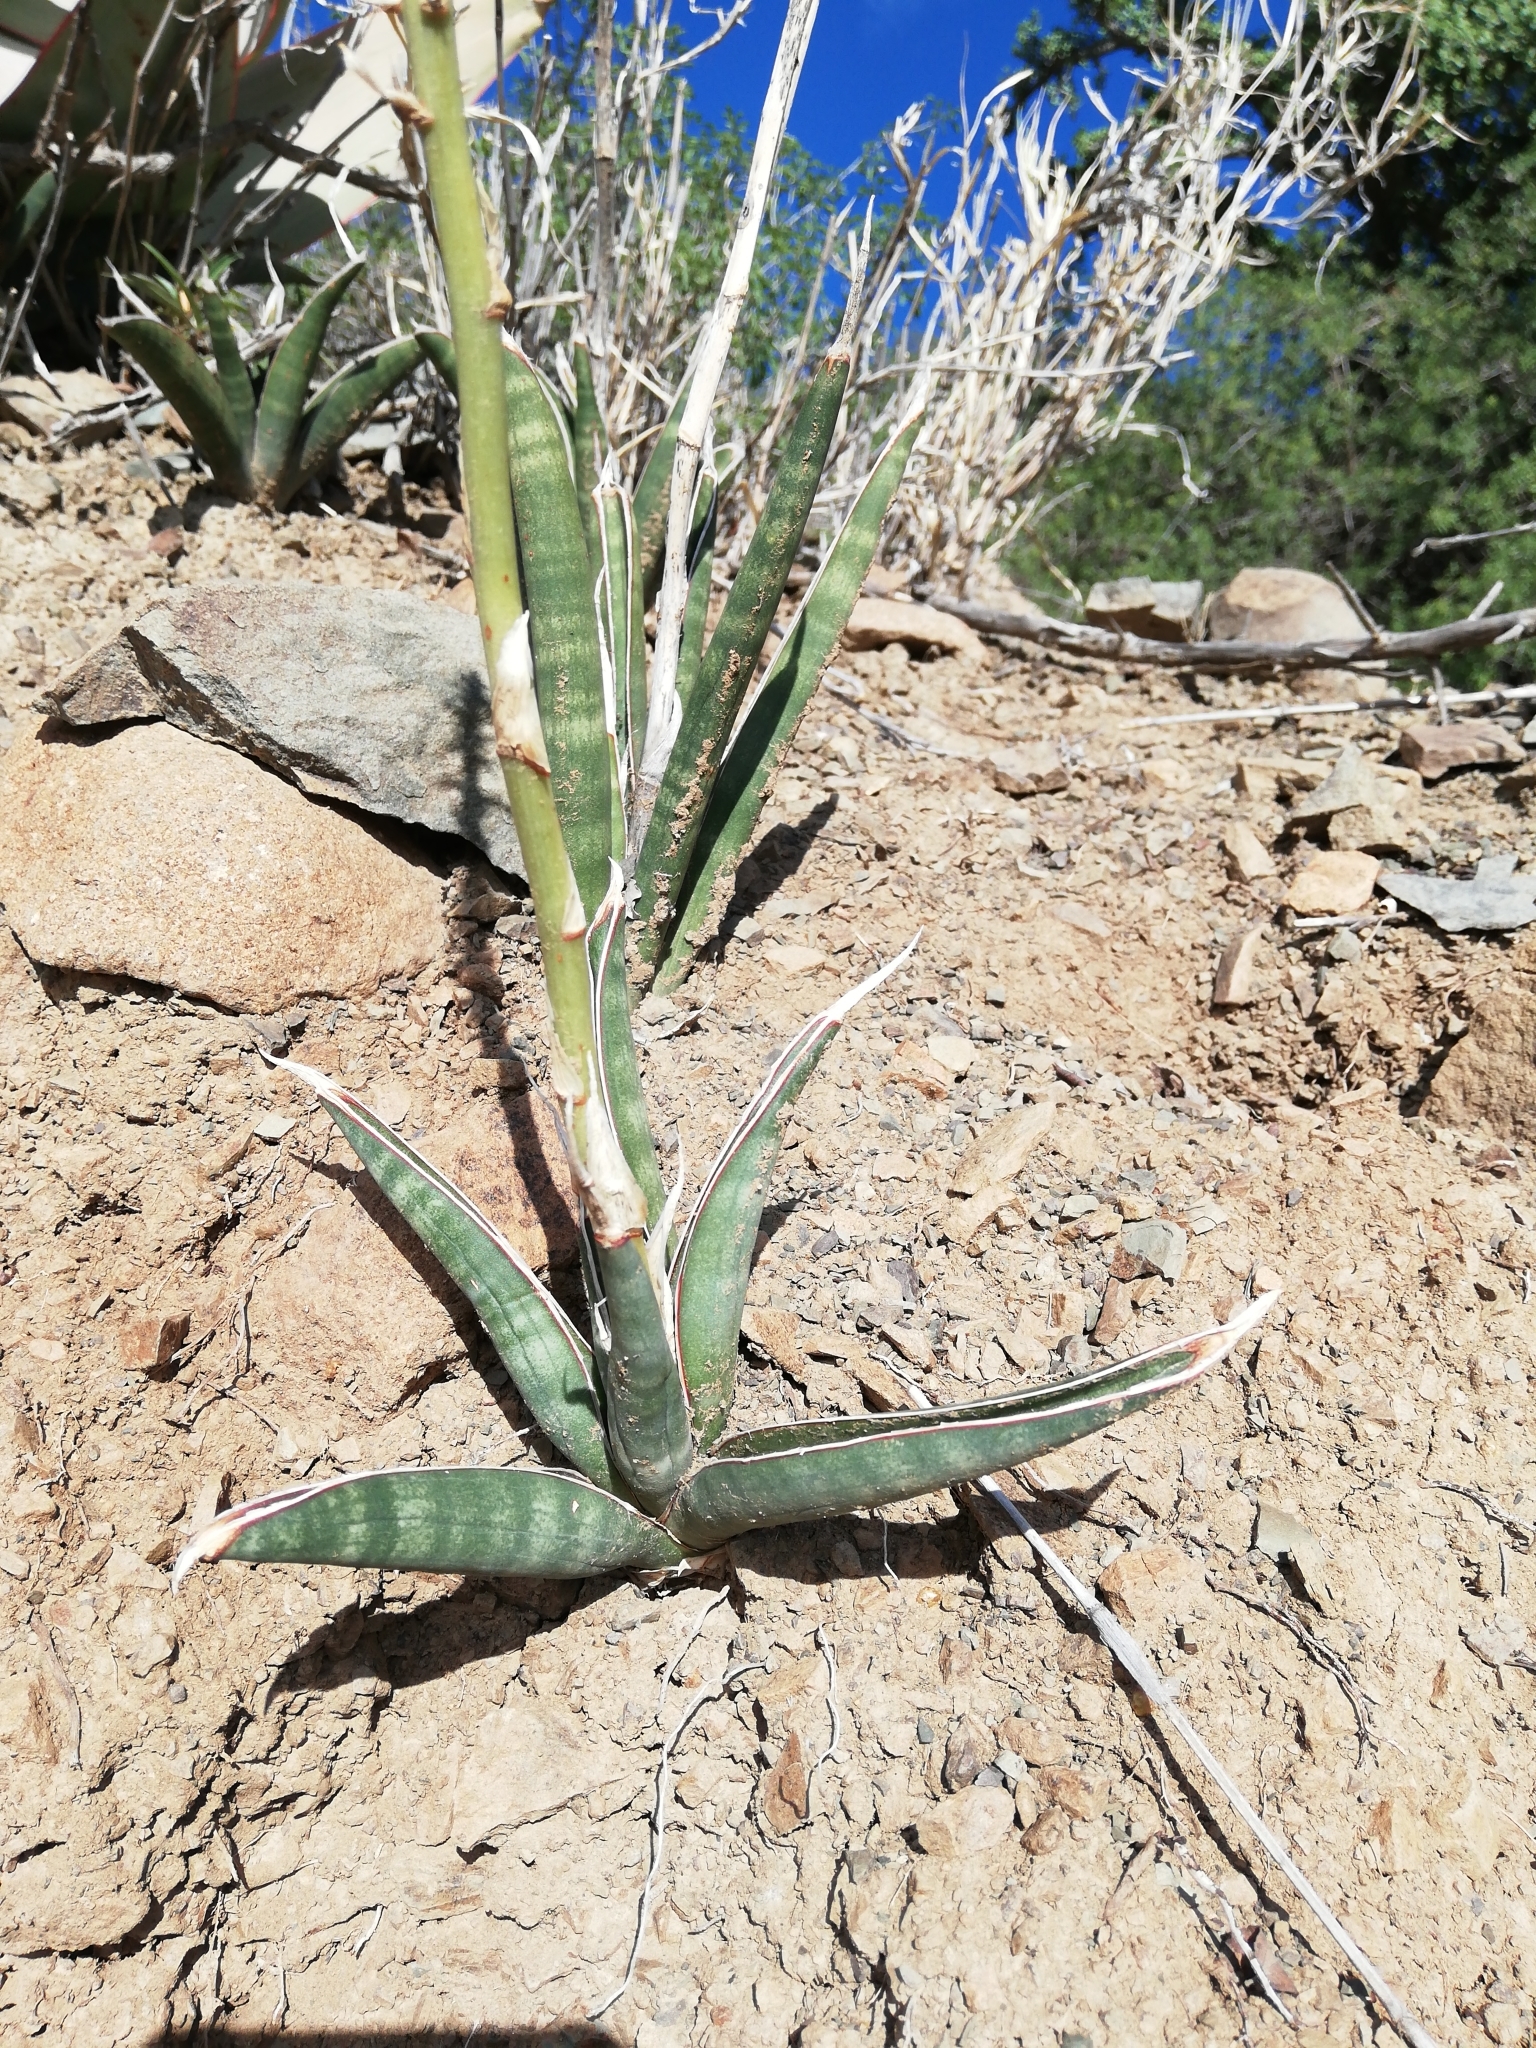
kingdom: Plantae
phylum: Tracheophyta
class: Liliopsida
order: Asparagales
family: Asparagaceae
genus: Dracaena
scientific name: Dracaena aethiopica
